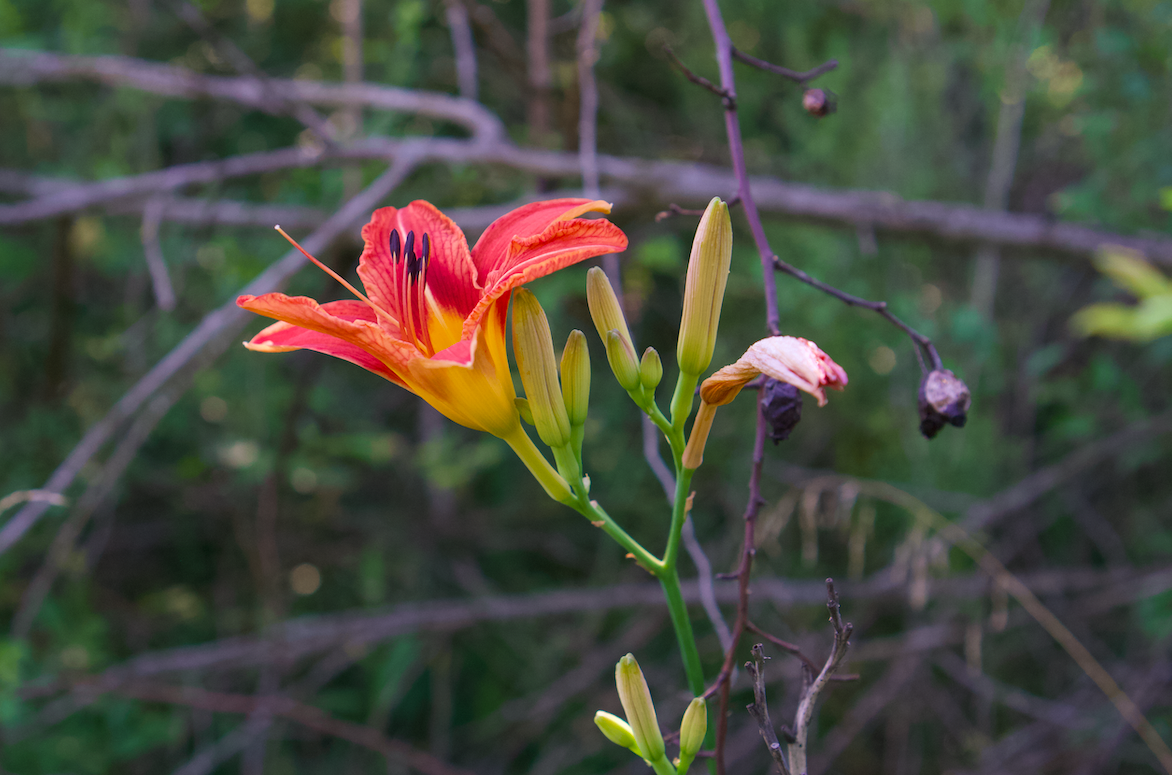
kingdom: Plantae
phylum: Tracheophyta
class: Liliopsida
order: Asparagales
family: Asphodelaceae
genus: Hemerocallis
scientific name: Hemerocallis fulva
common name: Orange day-lily
